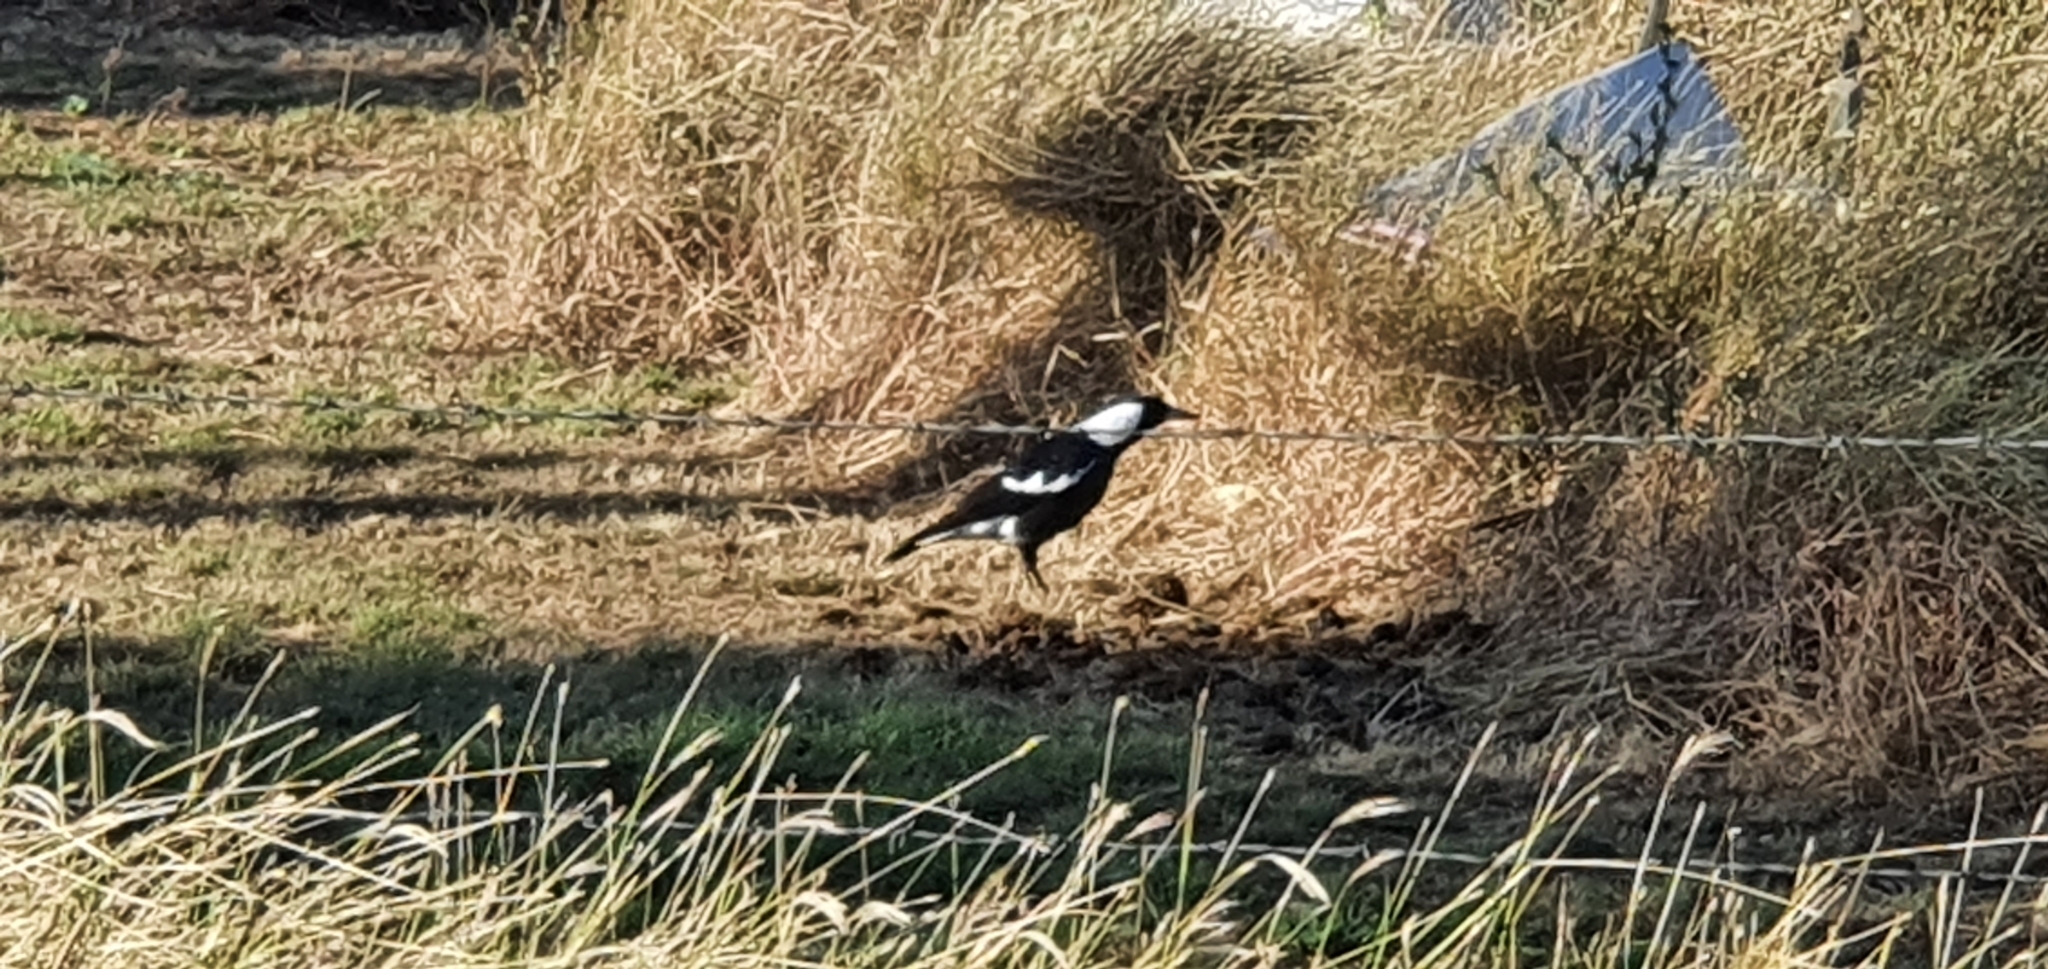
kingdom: Animalia
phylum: Chordata
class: Aves
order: Passeriformes
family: Cracticidae
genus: Gymnorhina
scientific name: Gymnorhina tibicen
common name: Australian magpie
